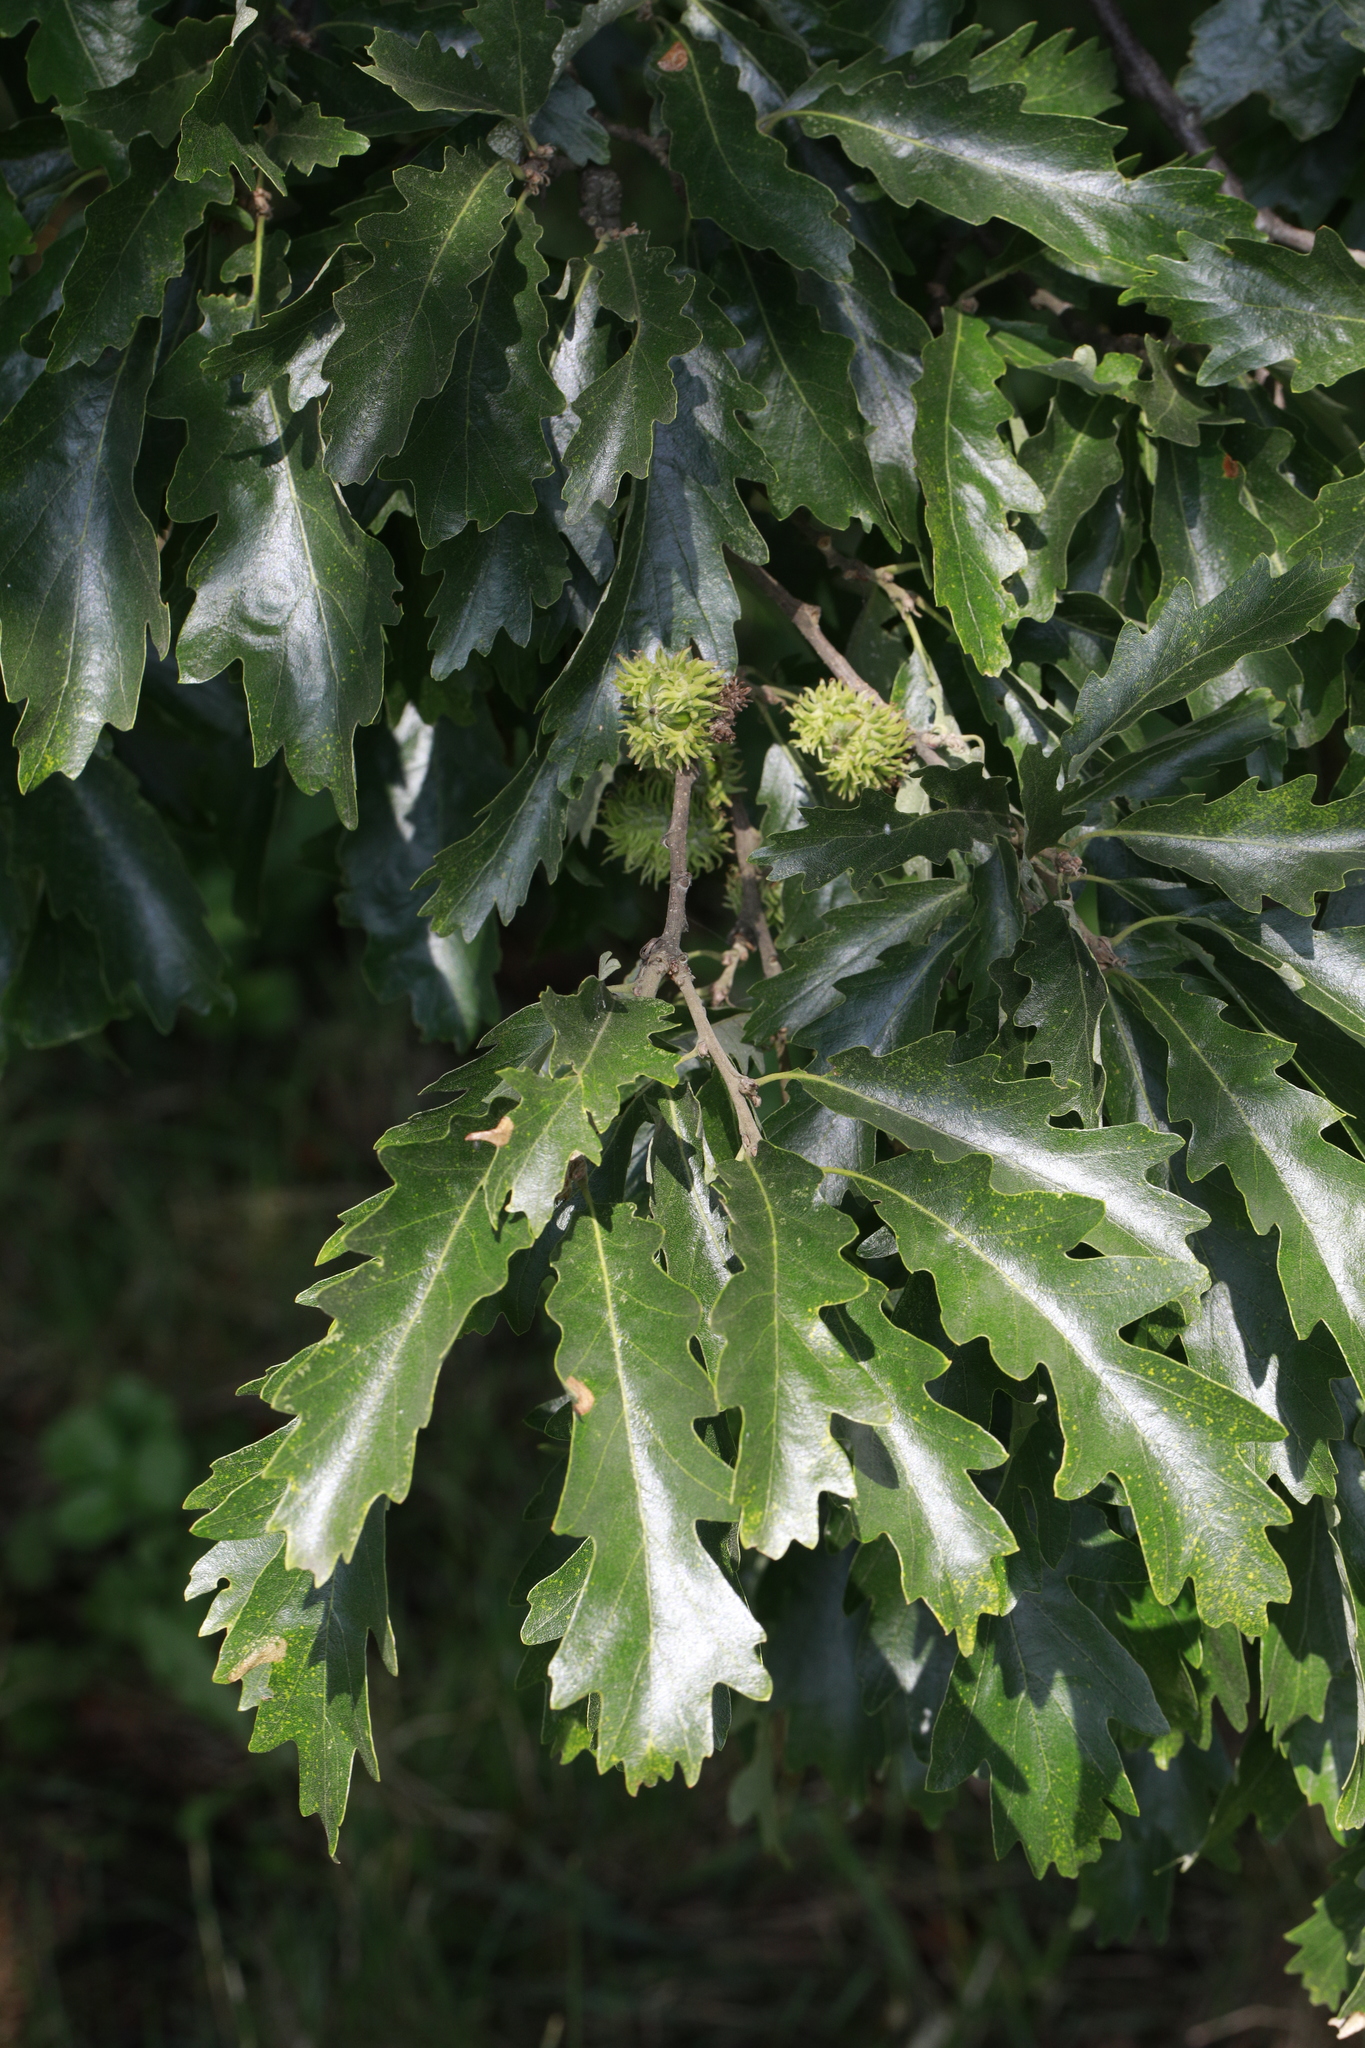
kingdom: Plantae
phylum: Tracheophyta
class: Magnoliopsida
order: Fagales
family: Fagaceae
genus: Quercus
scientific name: Quercus cerris
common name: Turkey oak
